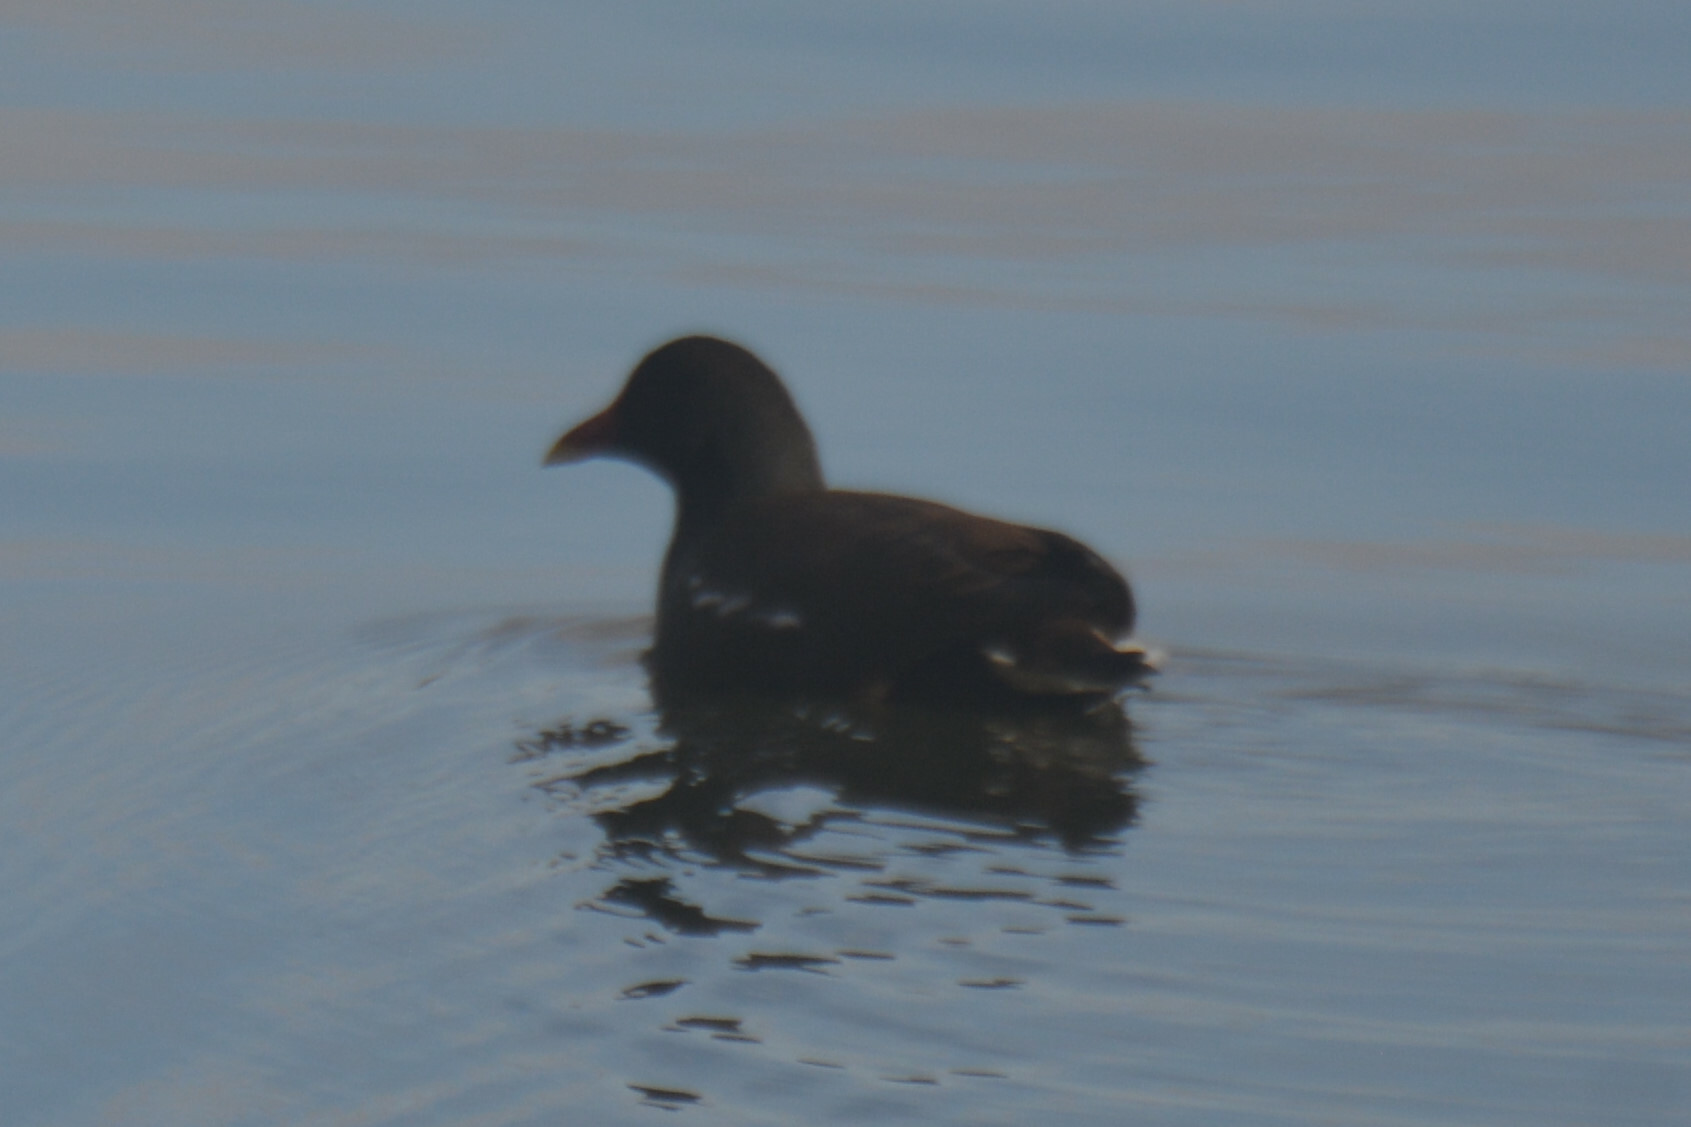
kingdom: Animalia
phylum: Chordata
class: Aves
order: Gruiformes
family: Rallidae
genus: Gallinula
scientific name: Gallinula chloropus
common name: Common moorhen
